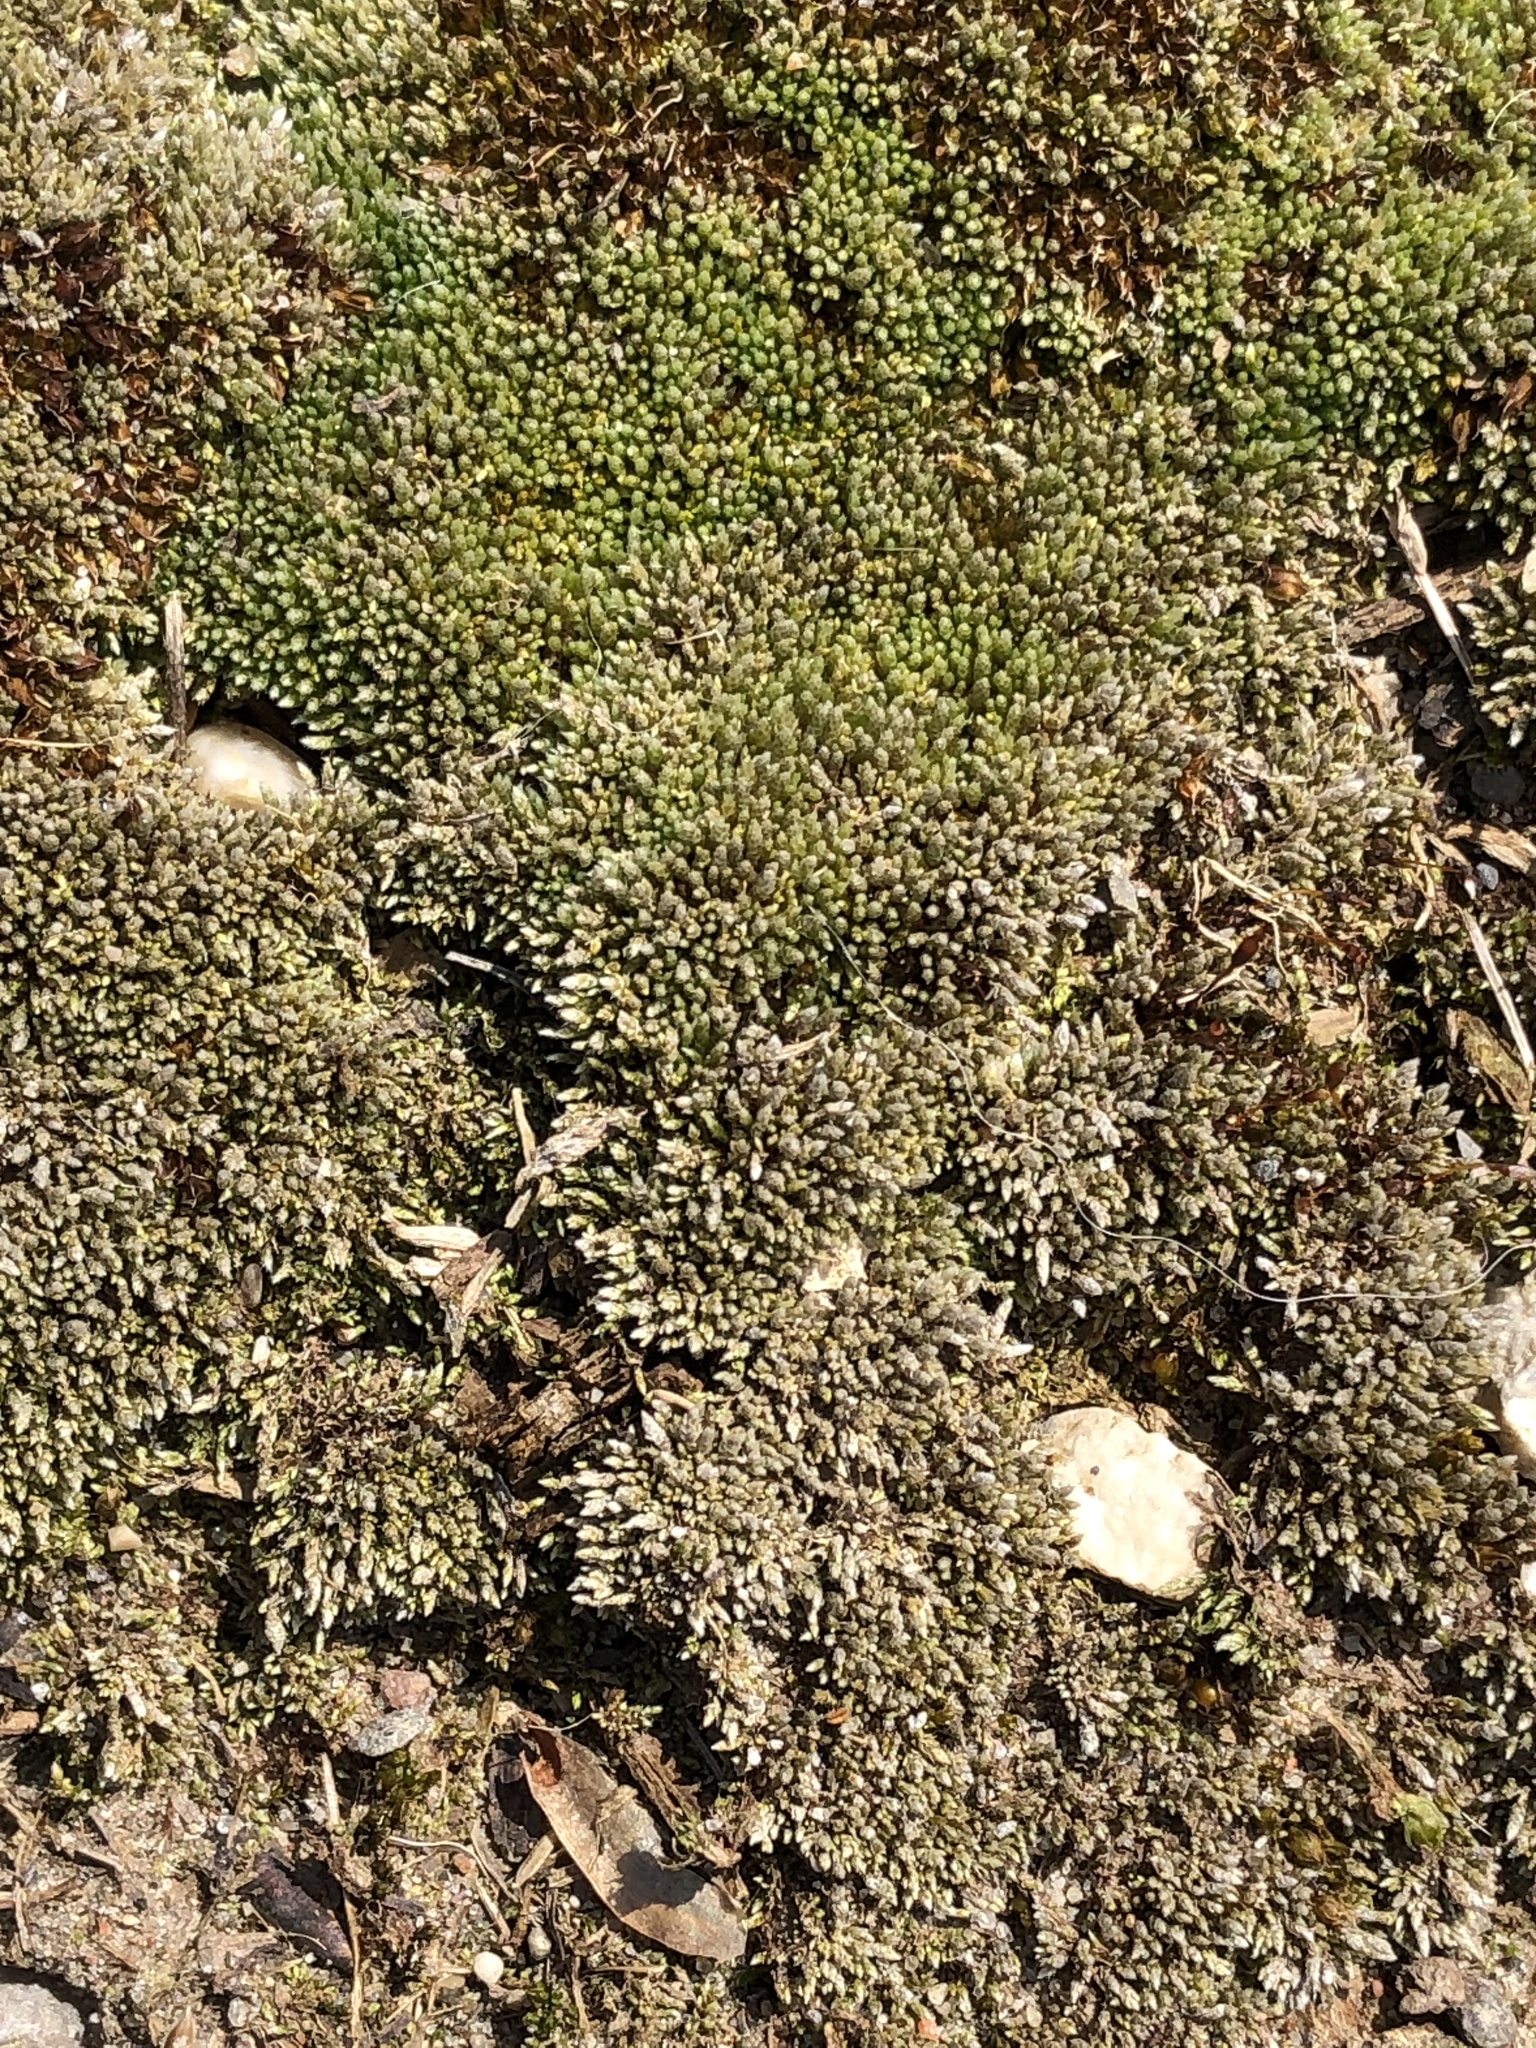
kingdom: Plantae
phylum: Bryophyta
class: Bryopsida
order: Bryales
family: Bryaceae
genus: Bryum
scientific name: Bryum argenteum
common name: Silver-moss
